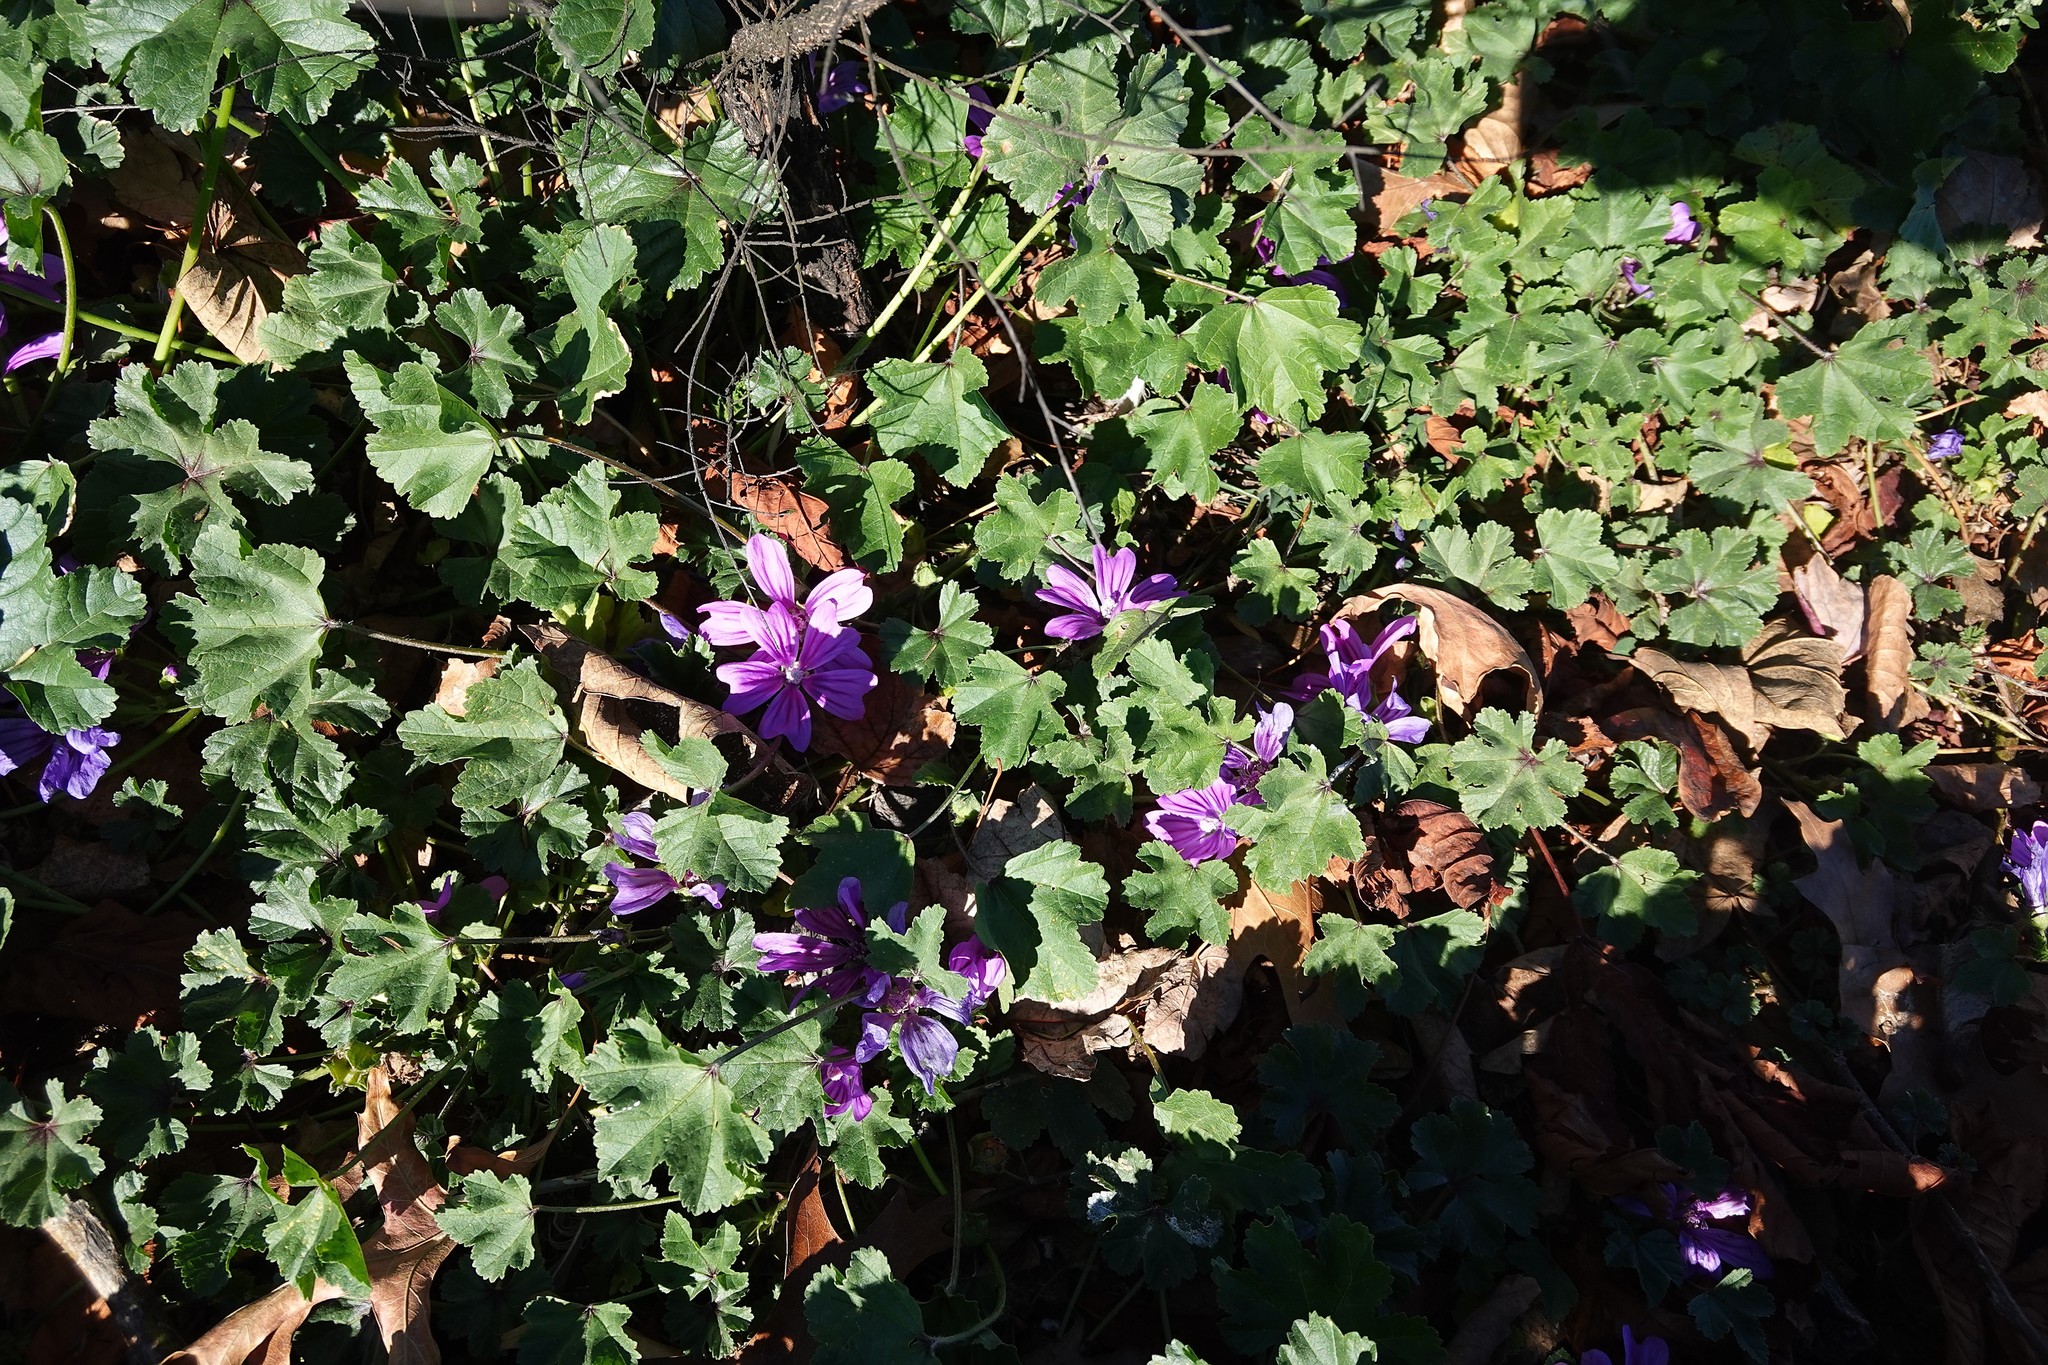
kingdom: Plantae
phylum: Tracheophyta
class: Magnoliopsida
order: Malvales
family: Malvaceae
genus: Malva
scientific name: Malva sylvestris
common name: Common mallow
